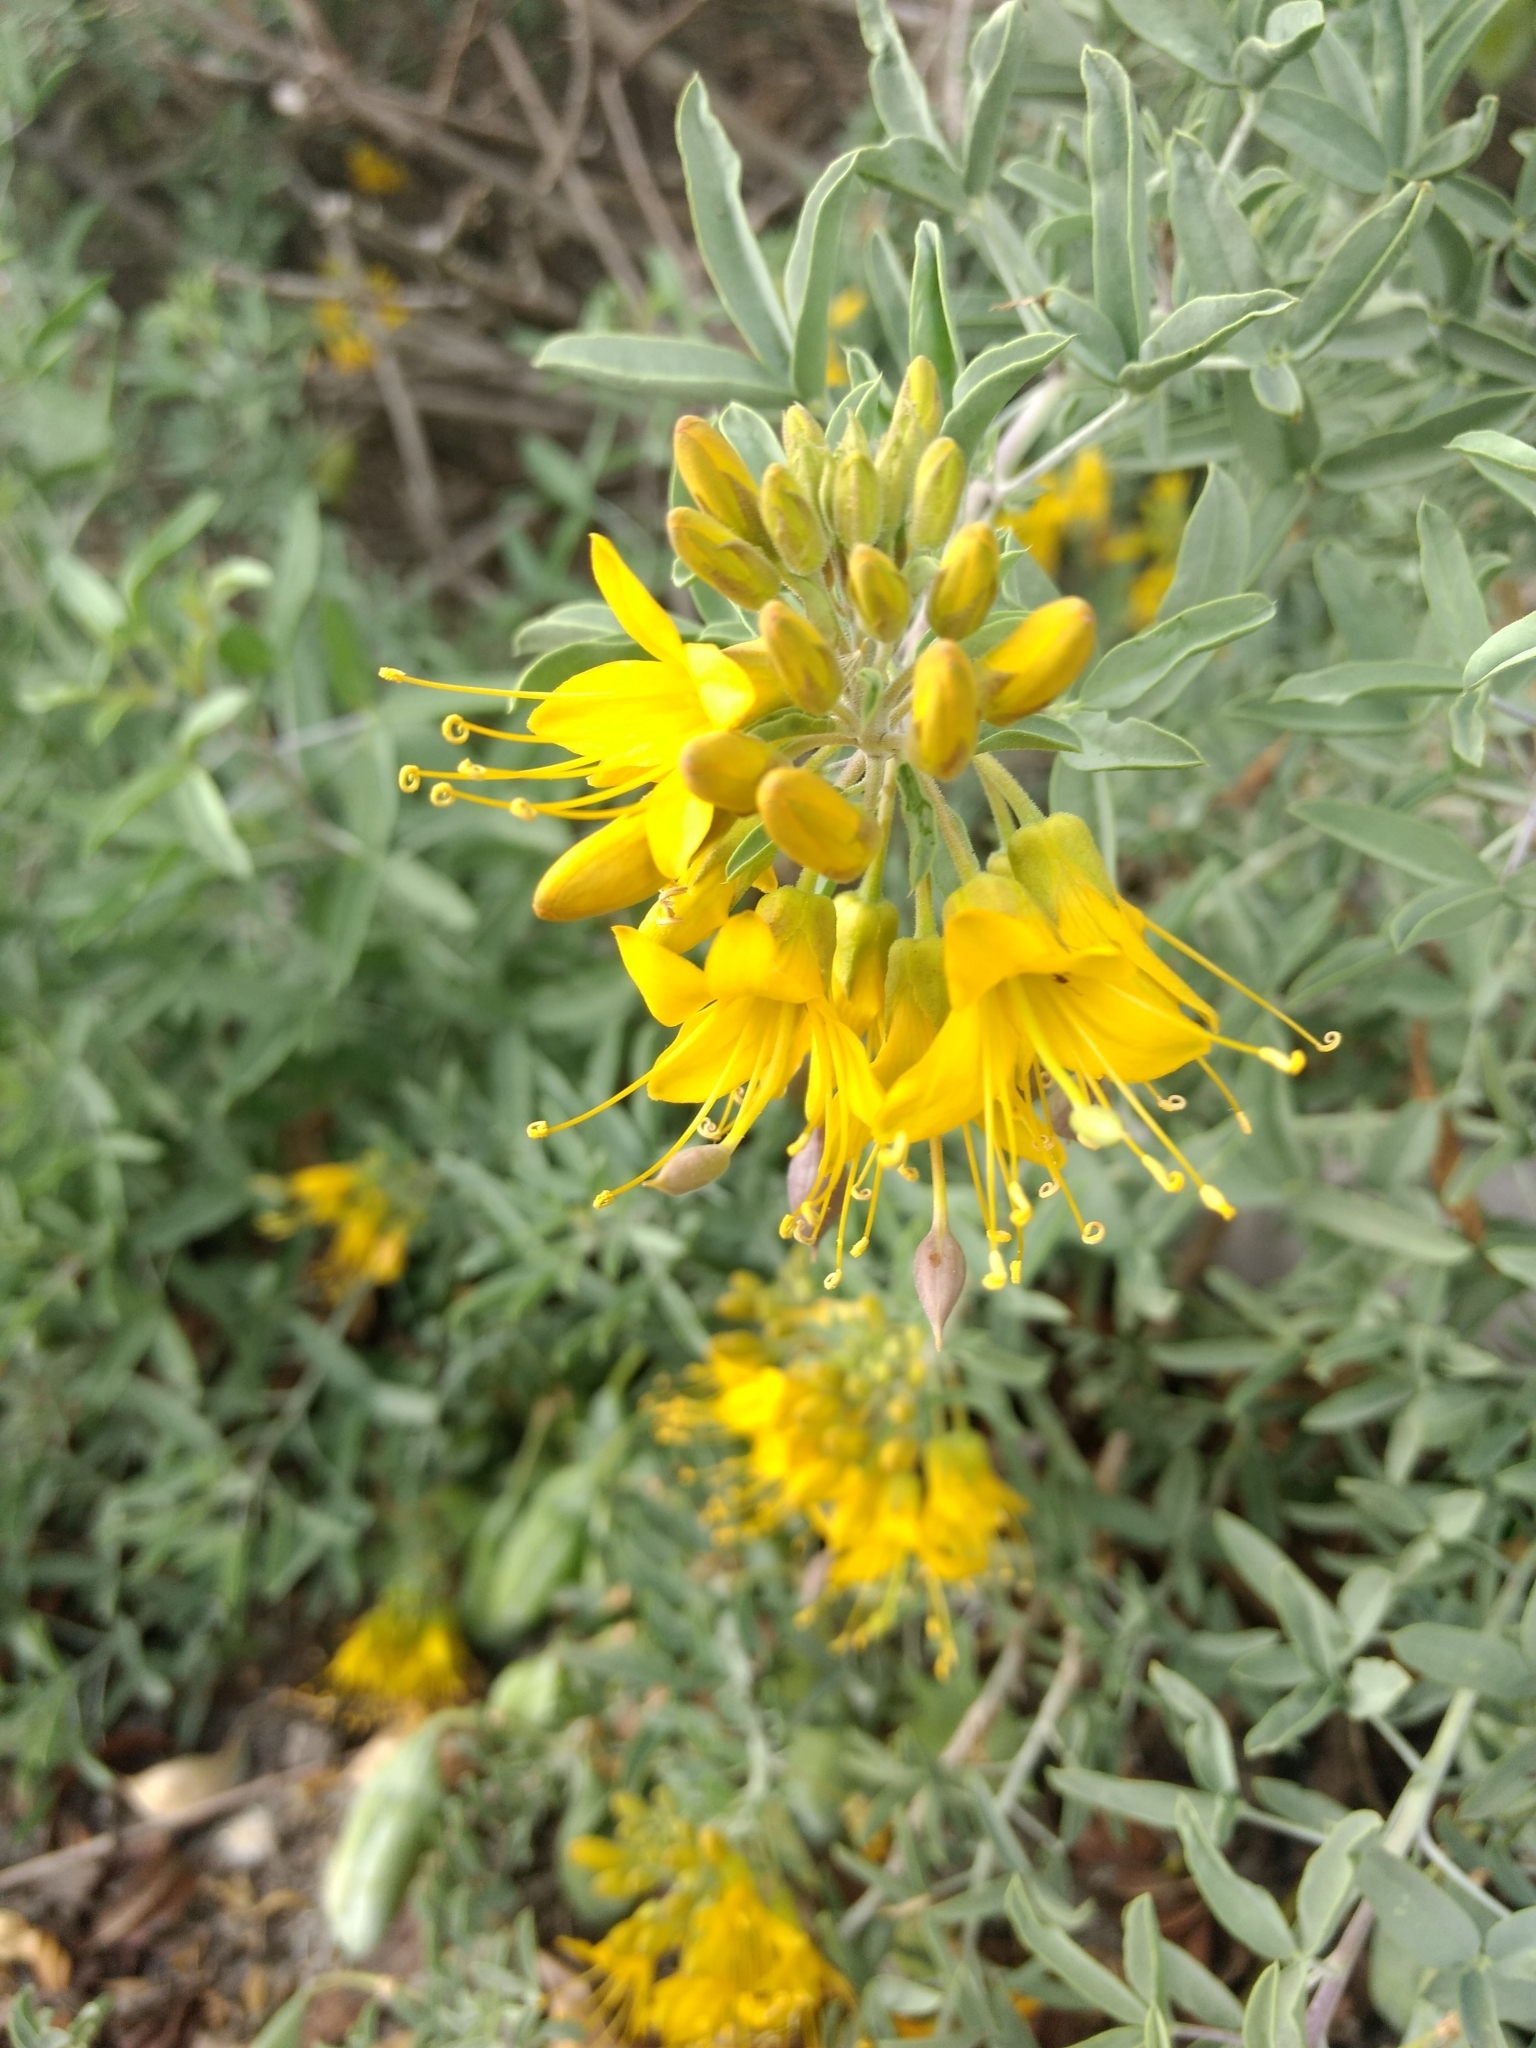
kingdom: Plantae
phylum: Tracheophyta
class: Magnoliopsida
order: Brassicales
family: Cleomaceae
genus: Cleomella
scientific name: Cleomella arborea
